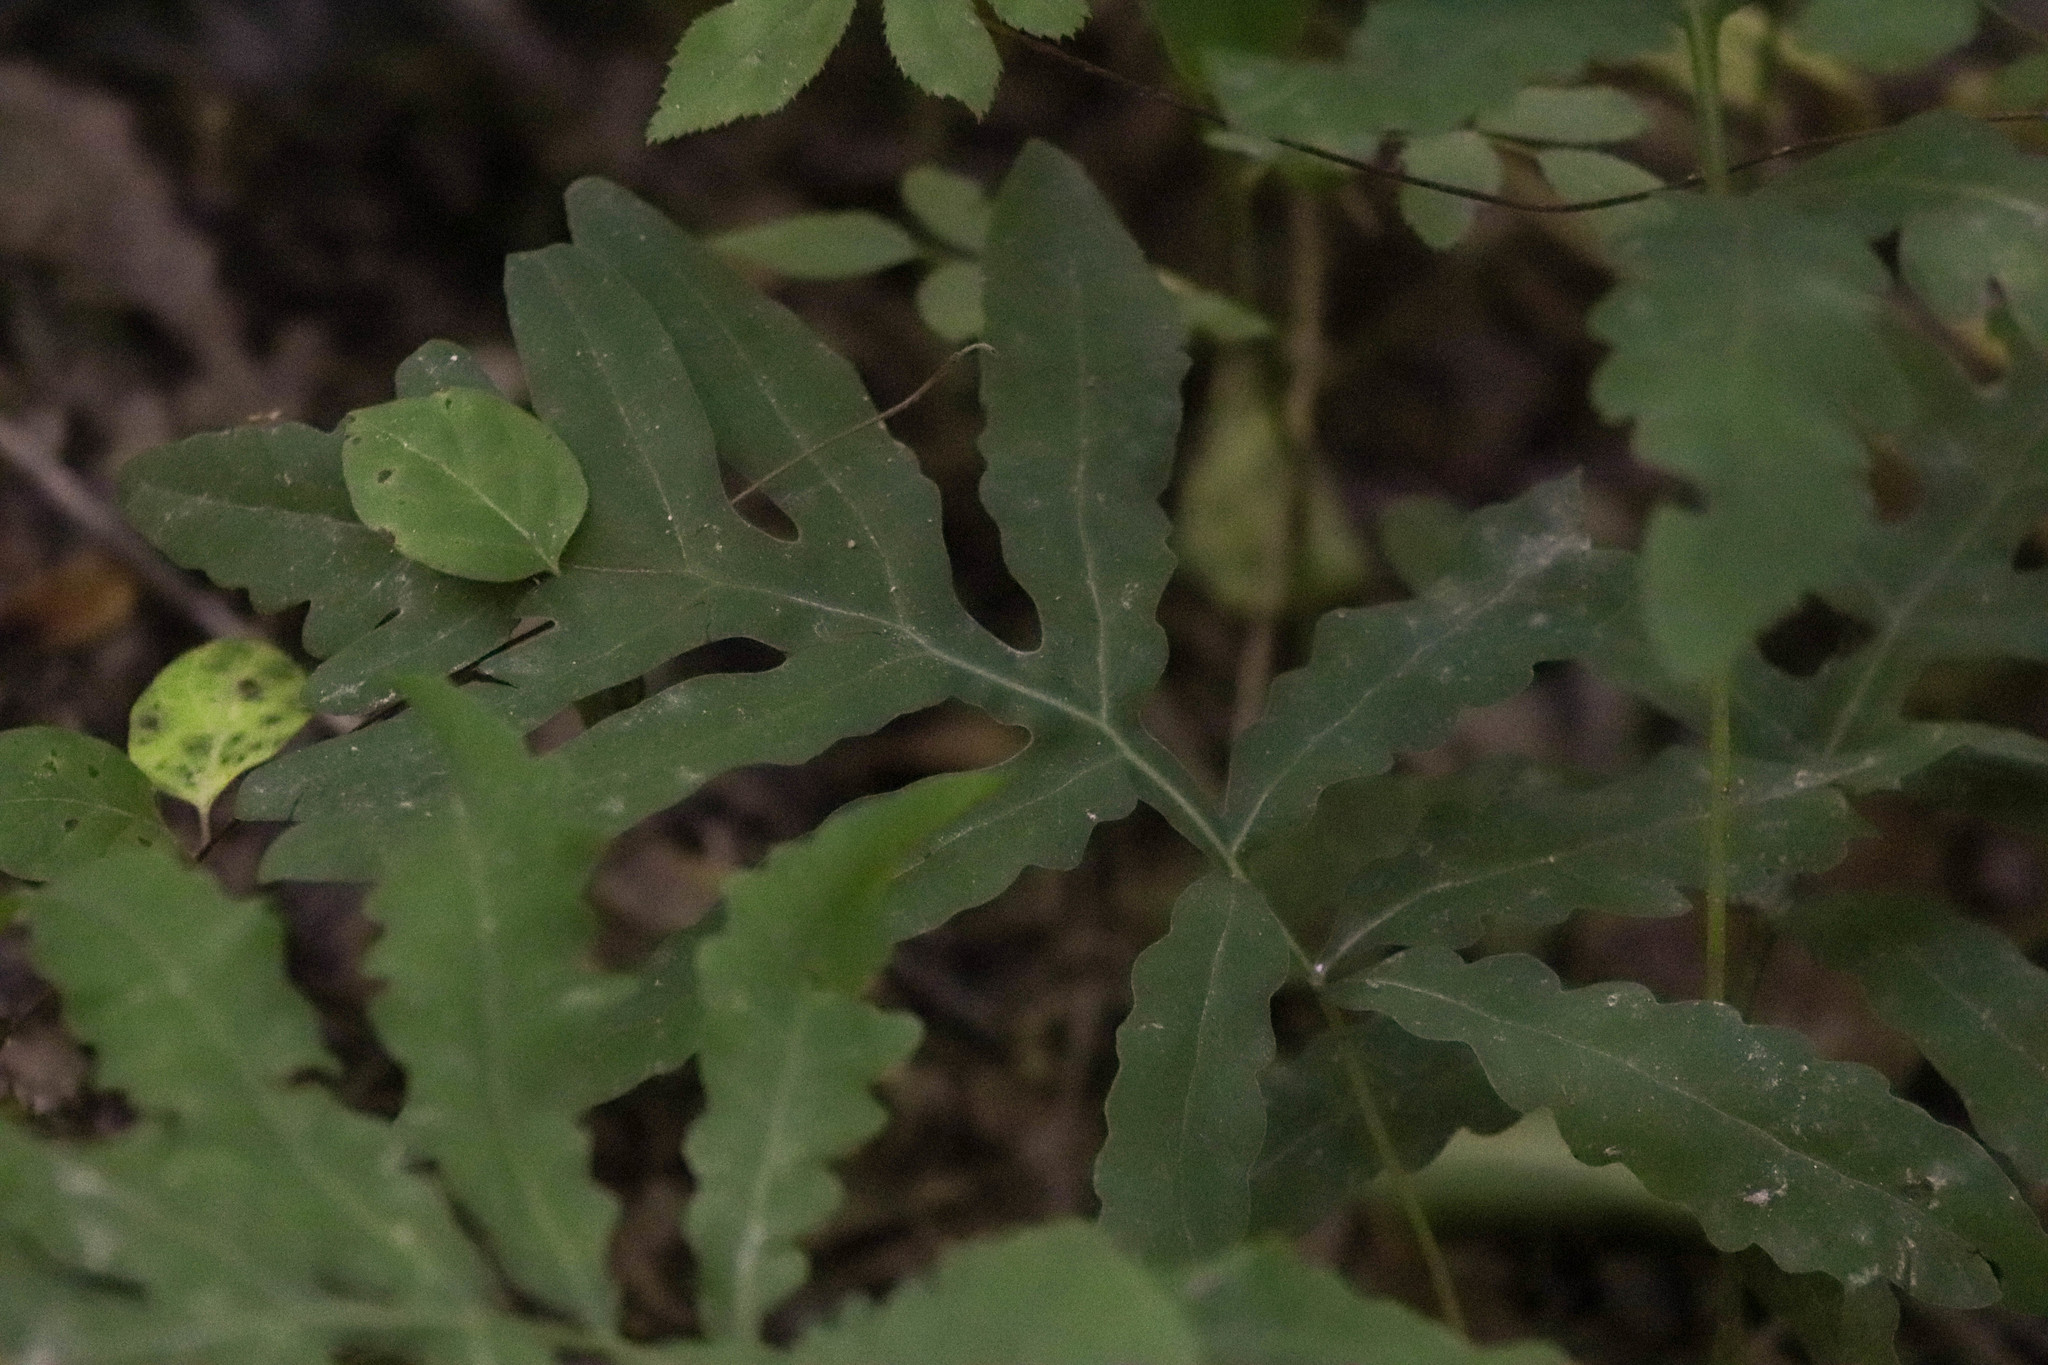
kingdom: Plantae
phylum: Tracheophyta
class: Polypodiopsida
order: Polypodiales
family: Onocleaceae
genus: Onoclea
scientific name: Onoclea sensibilis
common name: Sensitive fern
